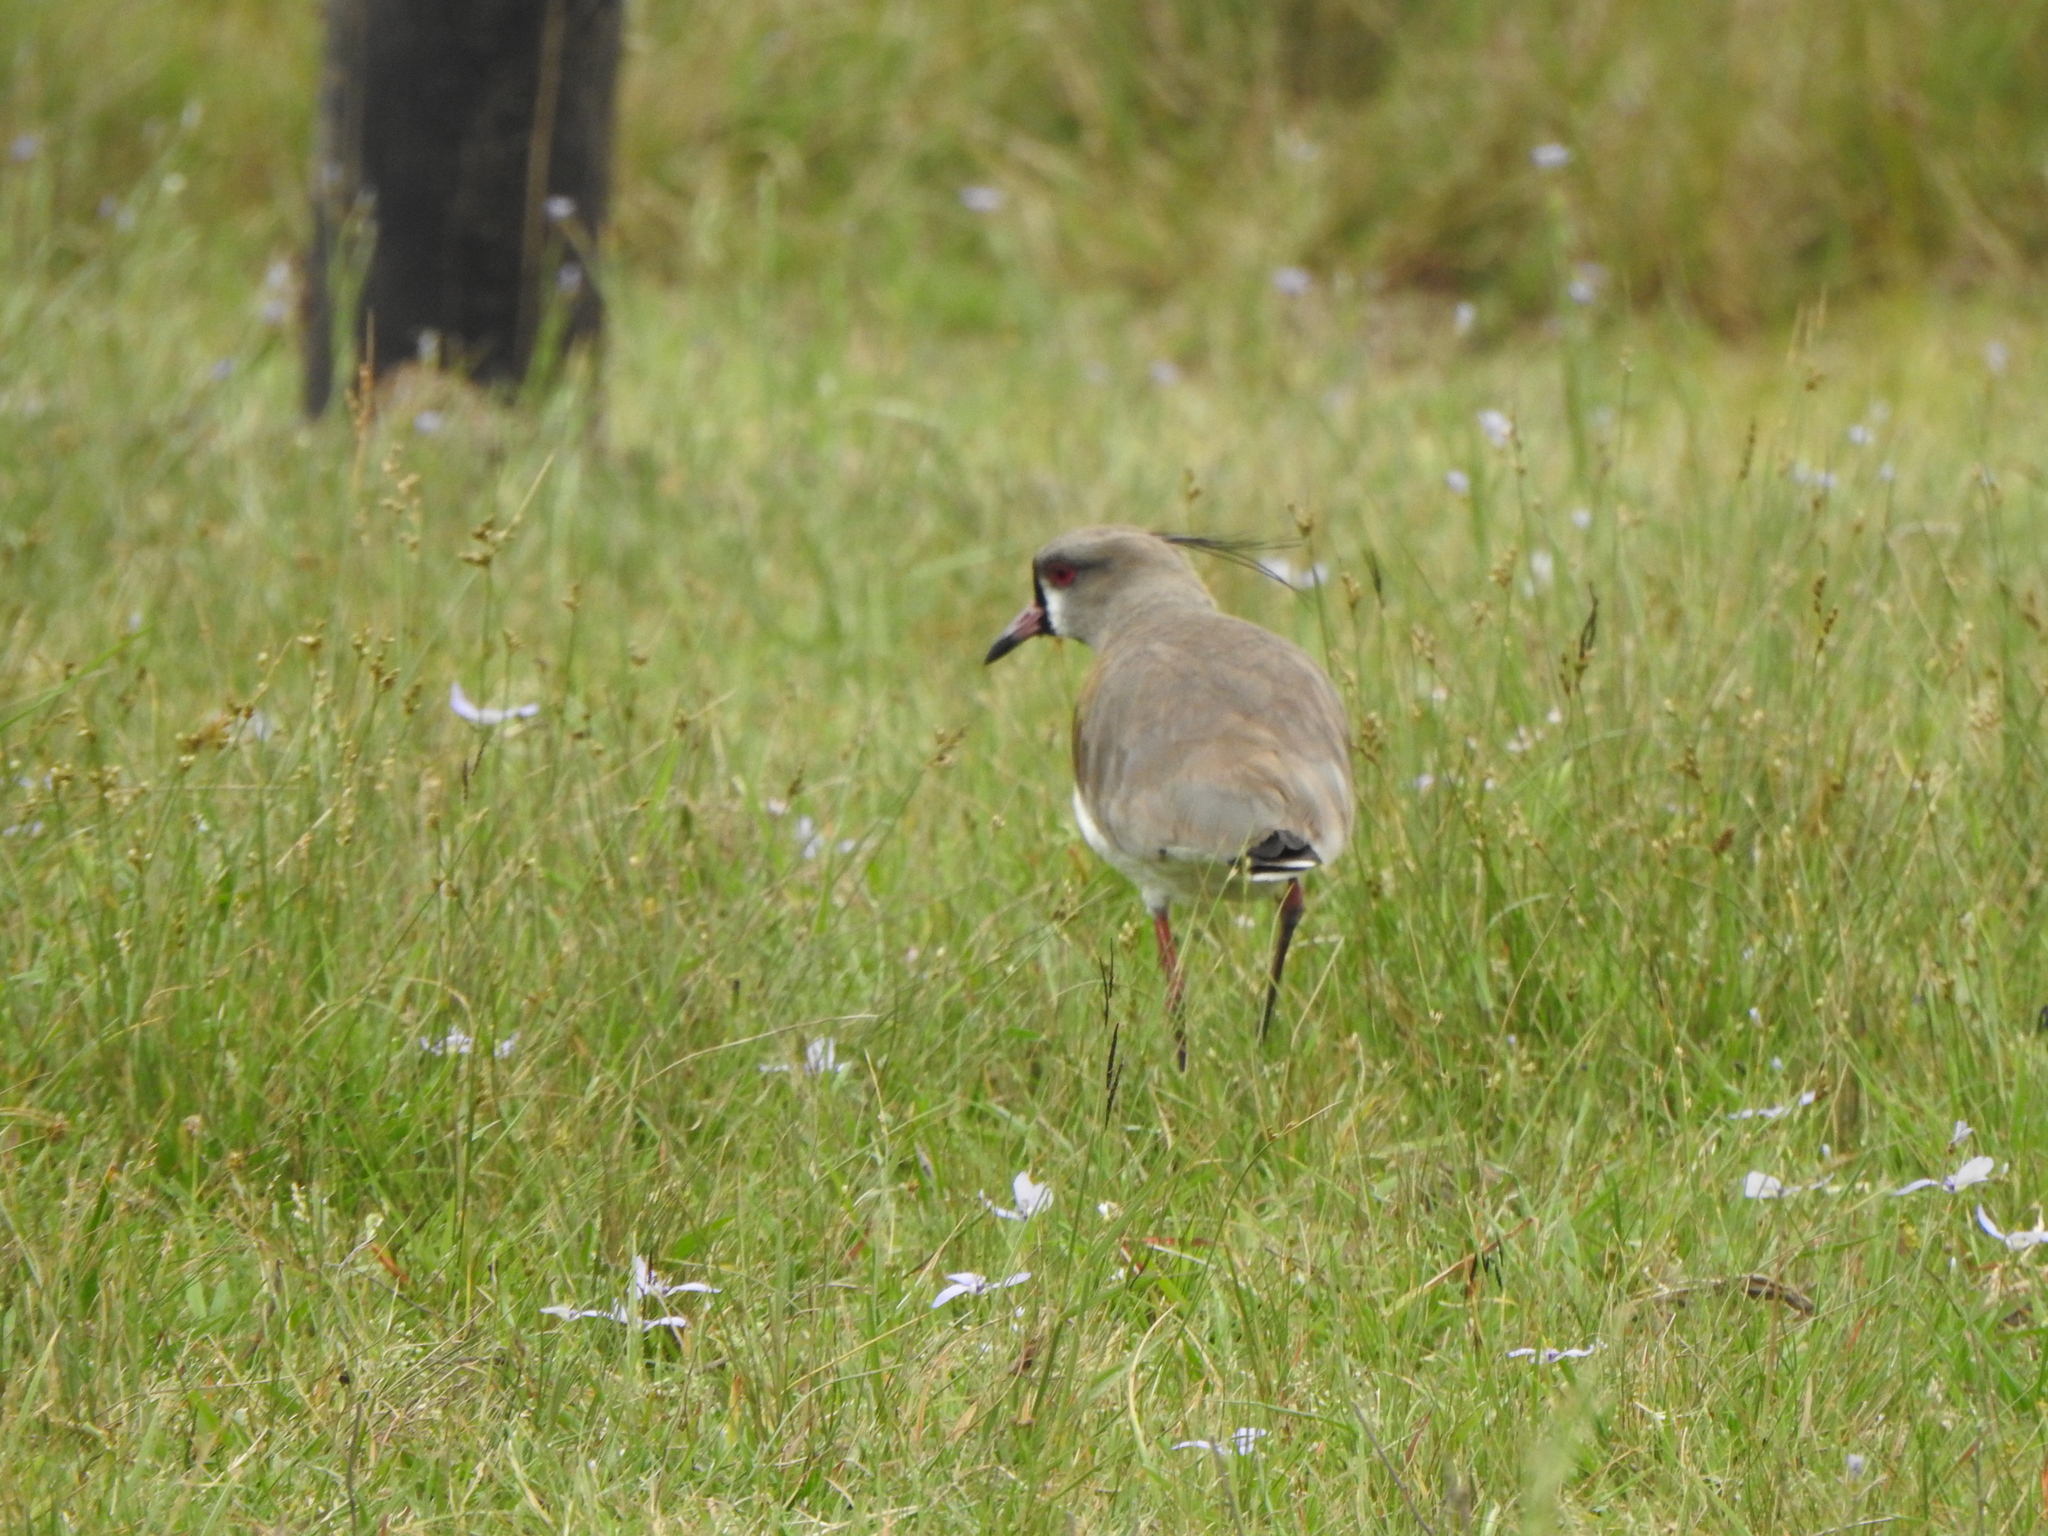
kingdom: Animalia
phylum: Chordata
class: Aves
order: Charadriiformes
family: Charadriidae
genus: Vanellus
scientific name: Vanellus chilensis
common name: Southern lapwing
